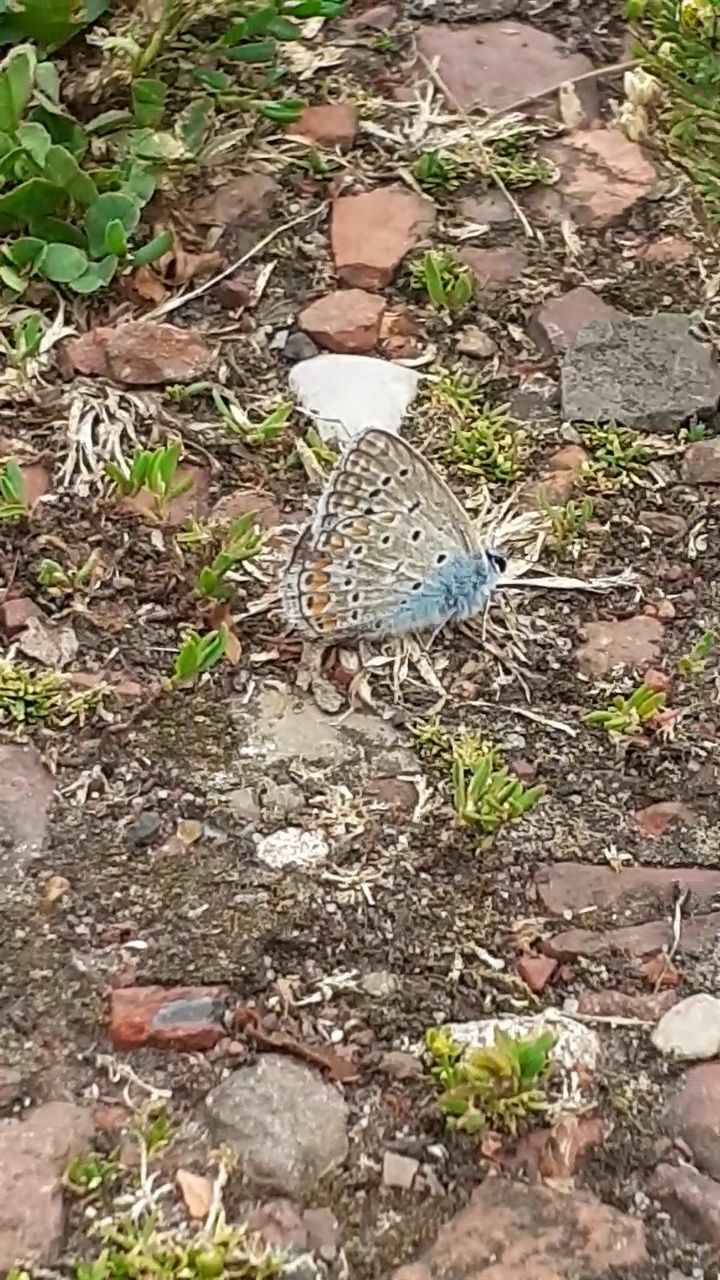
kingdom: Animalia
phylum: Arthropoda
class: Insecta
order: Lepidoptera
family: Lycaenidae
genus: Polyommatus
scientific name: Polyommatus icarus
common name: Common blue
